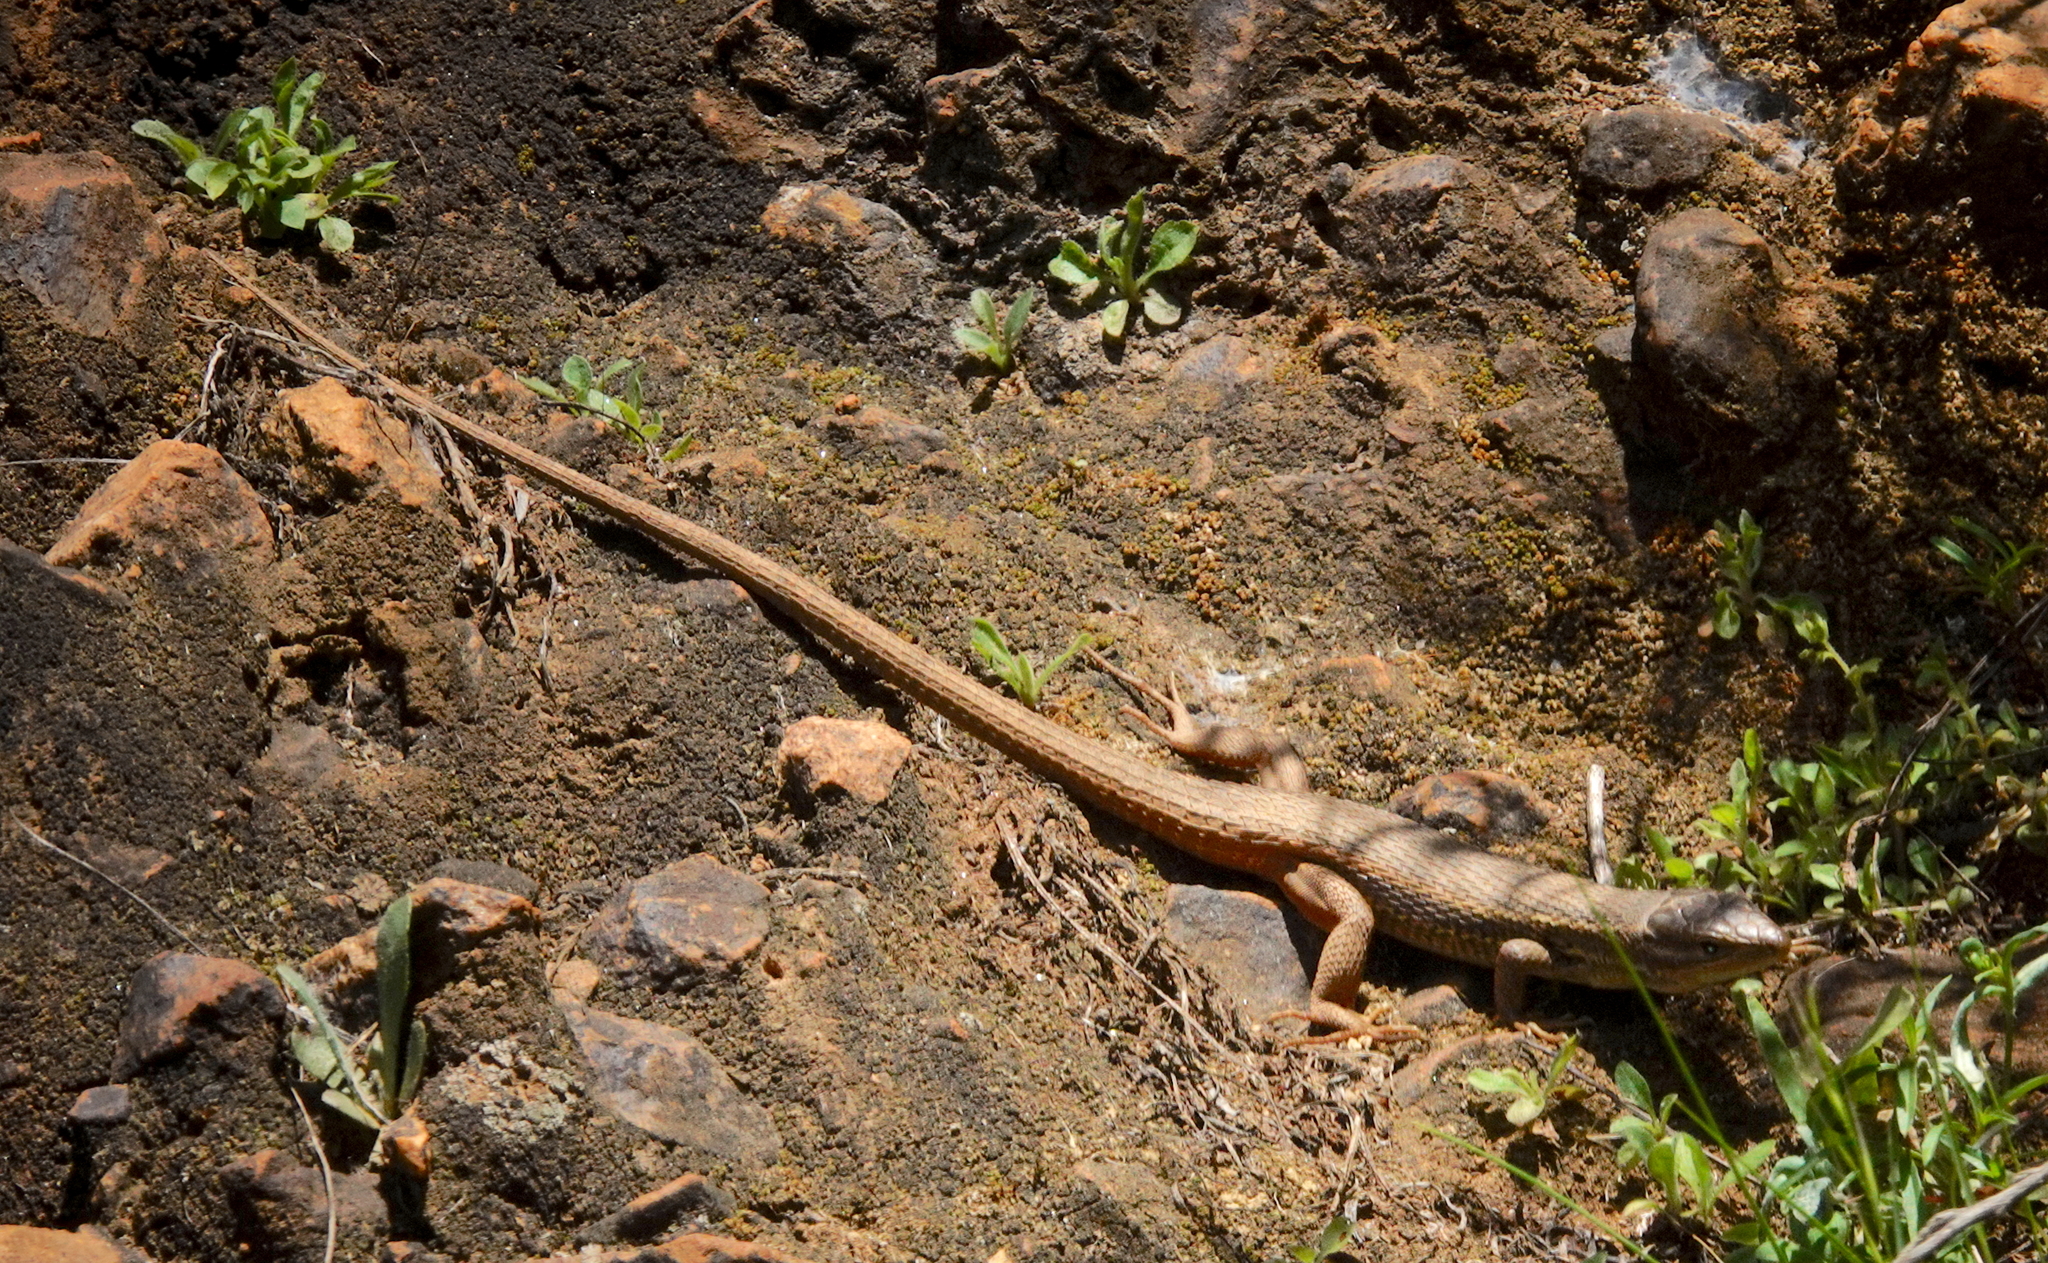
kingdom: Animalia
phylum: Chordata
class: Squamata
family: Lacertidae
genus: Psammodromus
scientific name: Psammodromus algirus
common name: Algerian psammodromus
